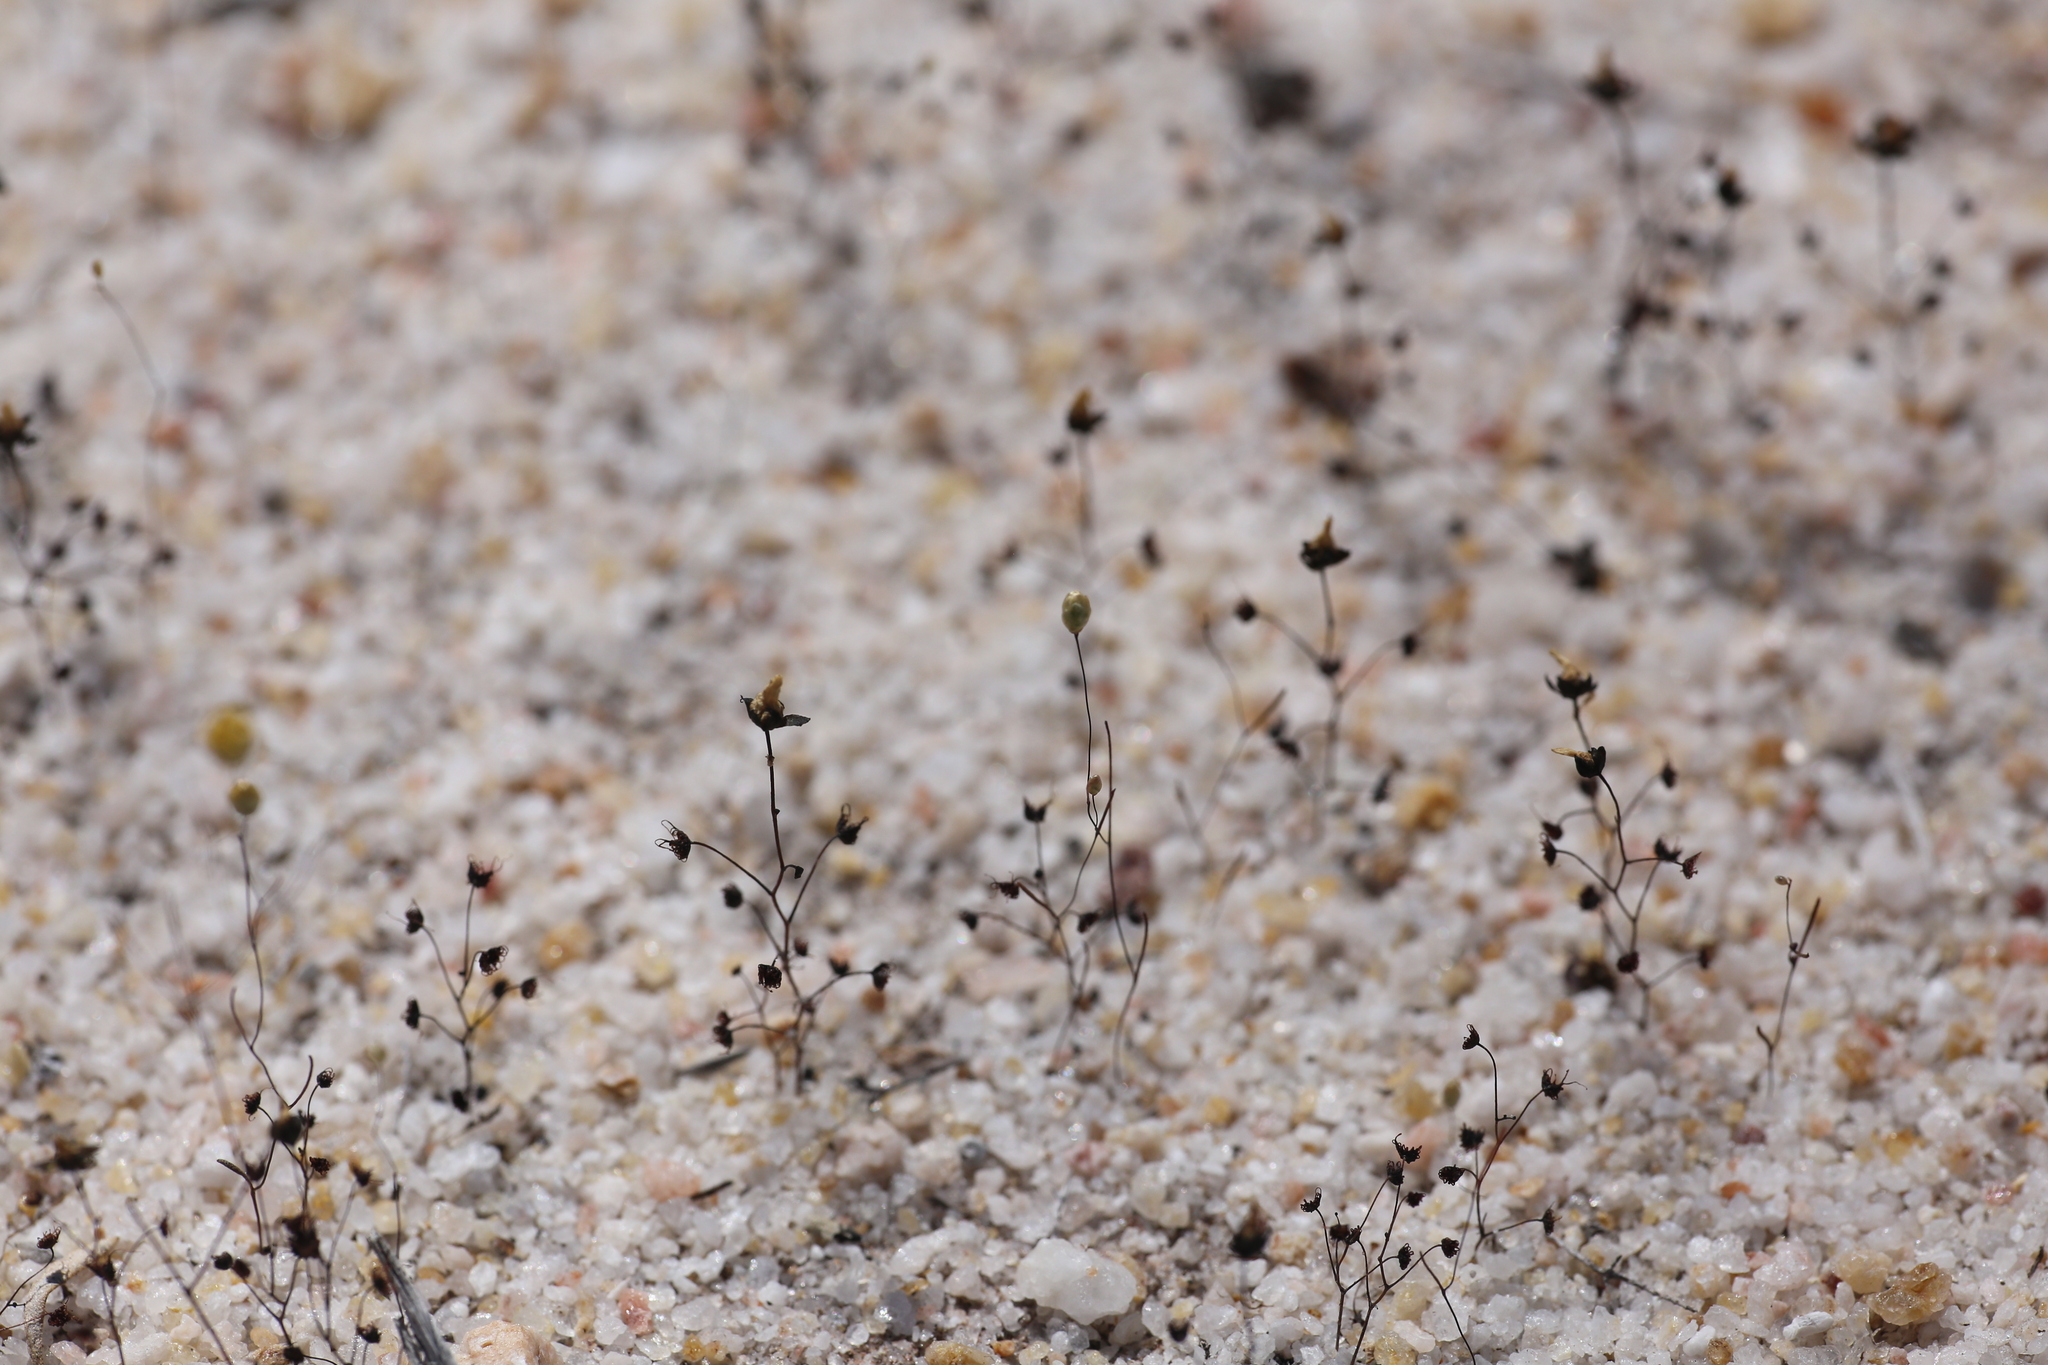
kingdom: Plantae
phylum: Tracheophyta
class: Magnoliopsida
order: Caryophyllales
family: Droseraceae
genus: Drosera
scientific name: Drosera salina
